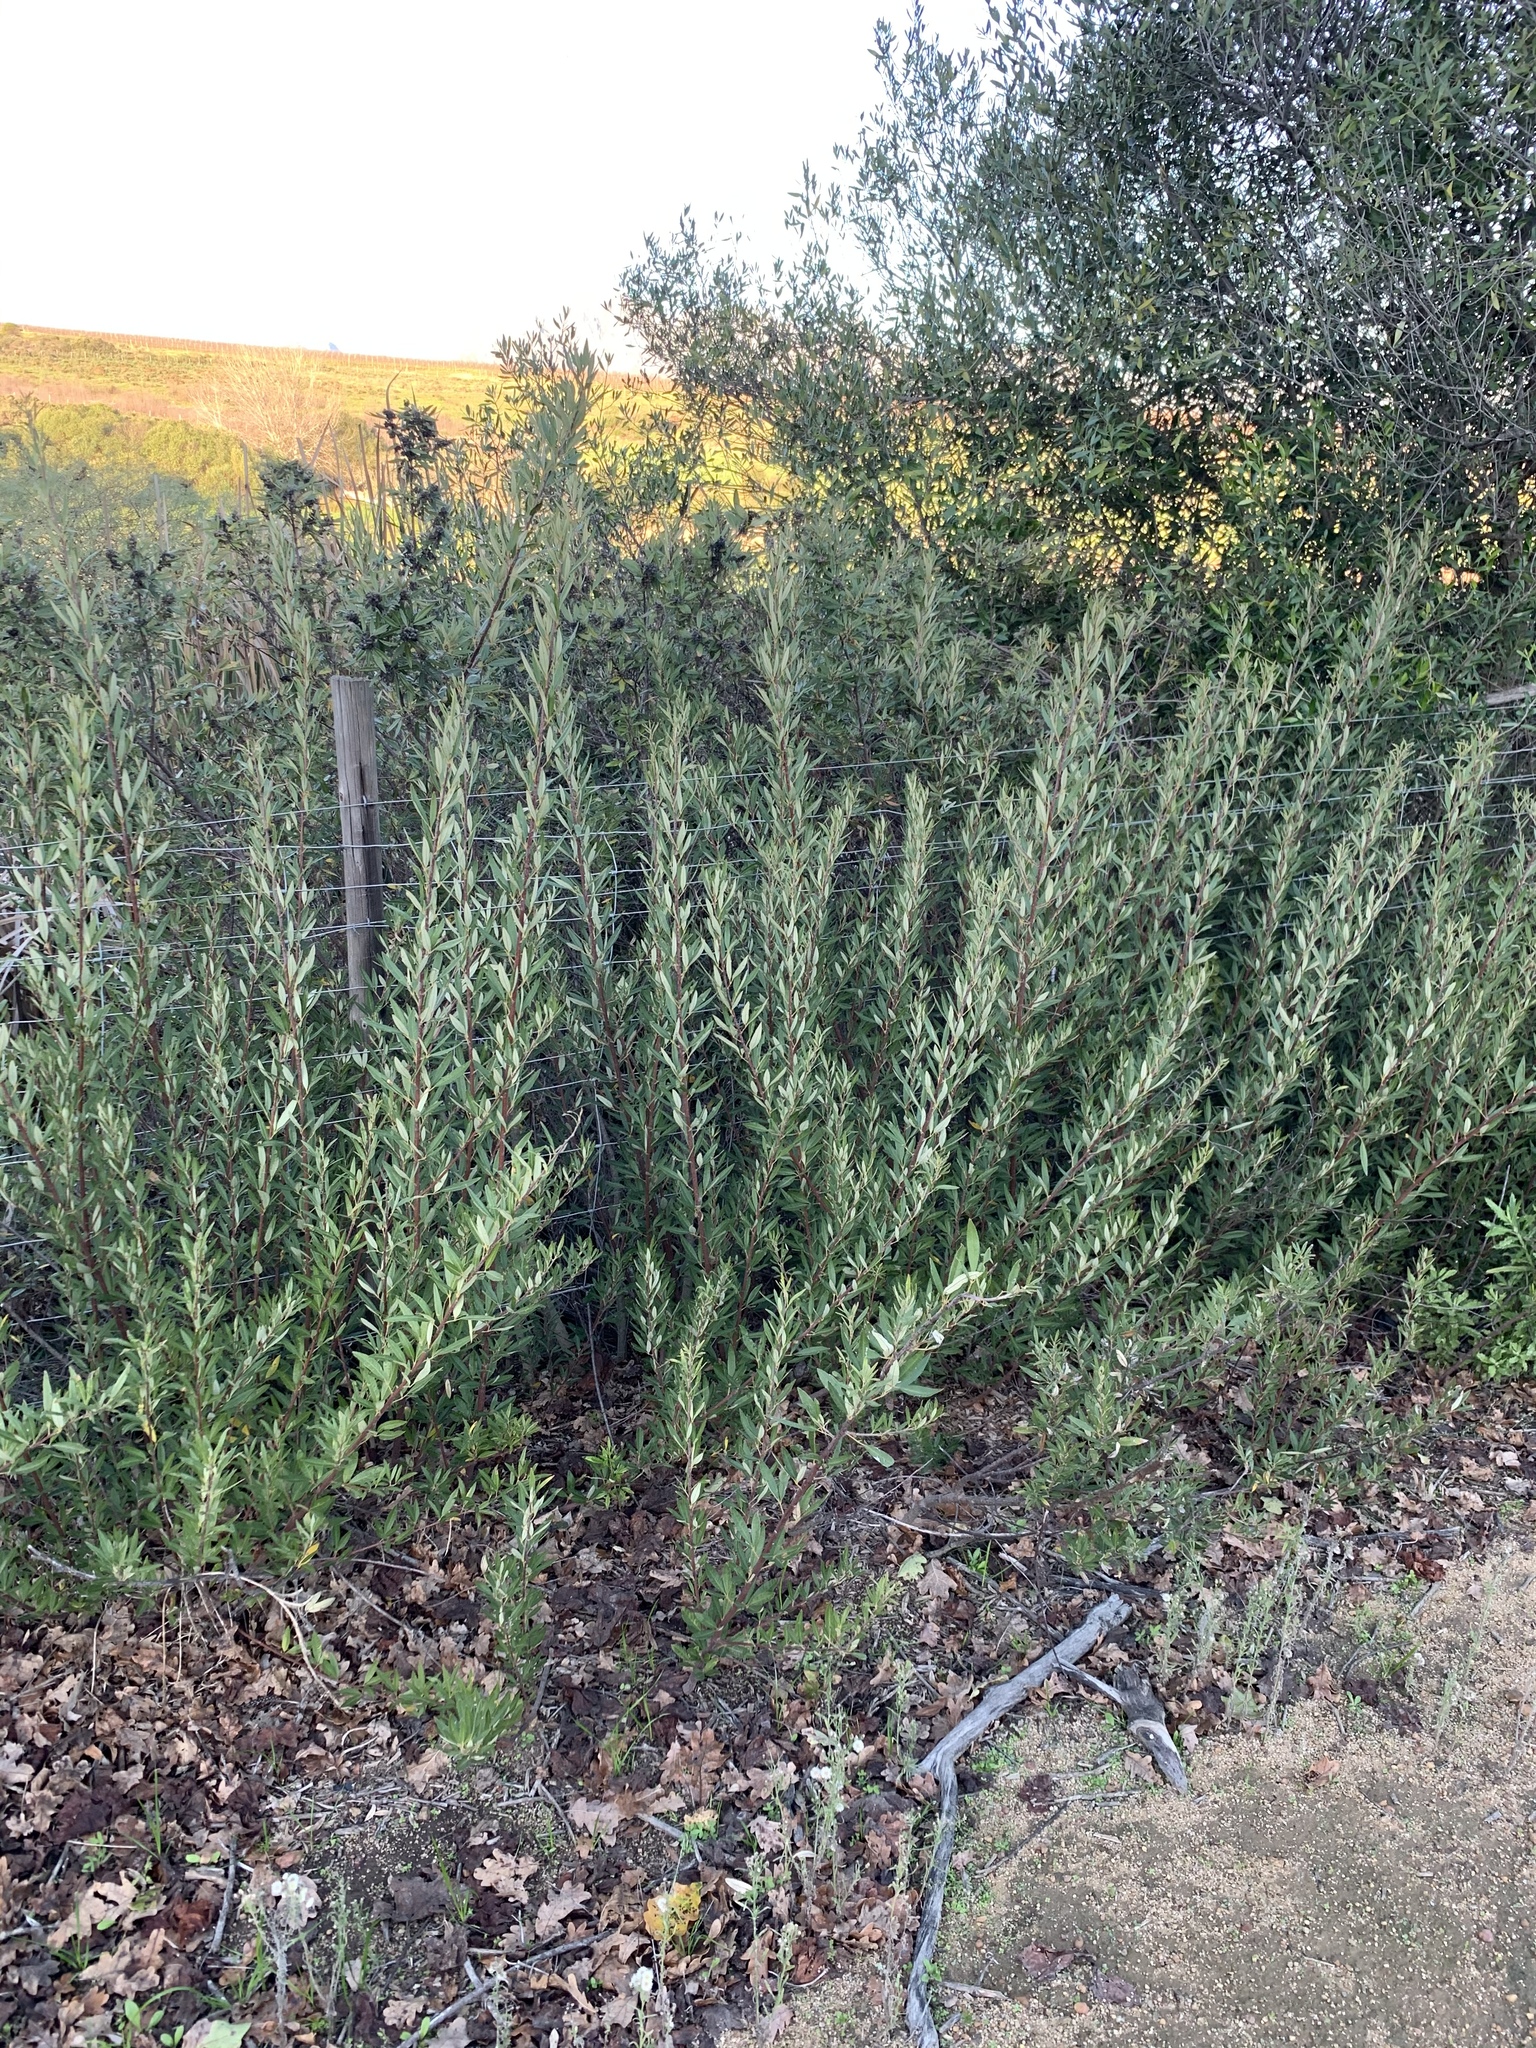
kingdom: Plantae
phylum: Tracheophyta
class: Magnoliopsida
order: Sapindales
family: Anacardiaceae
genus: Searsia
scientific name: Searsia angustifolia
